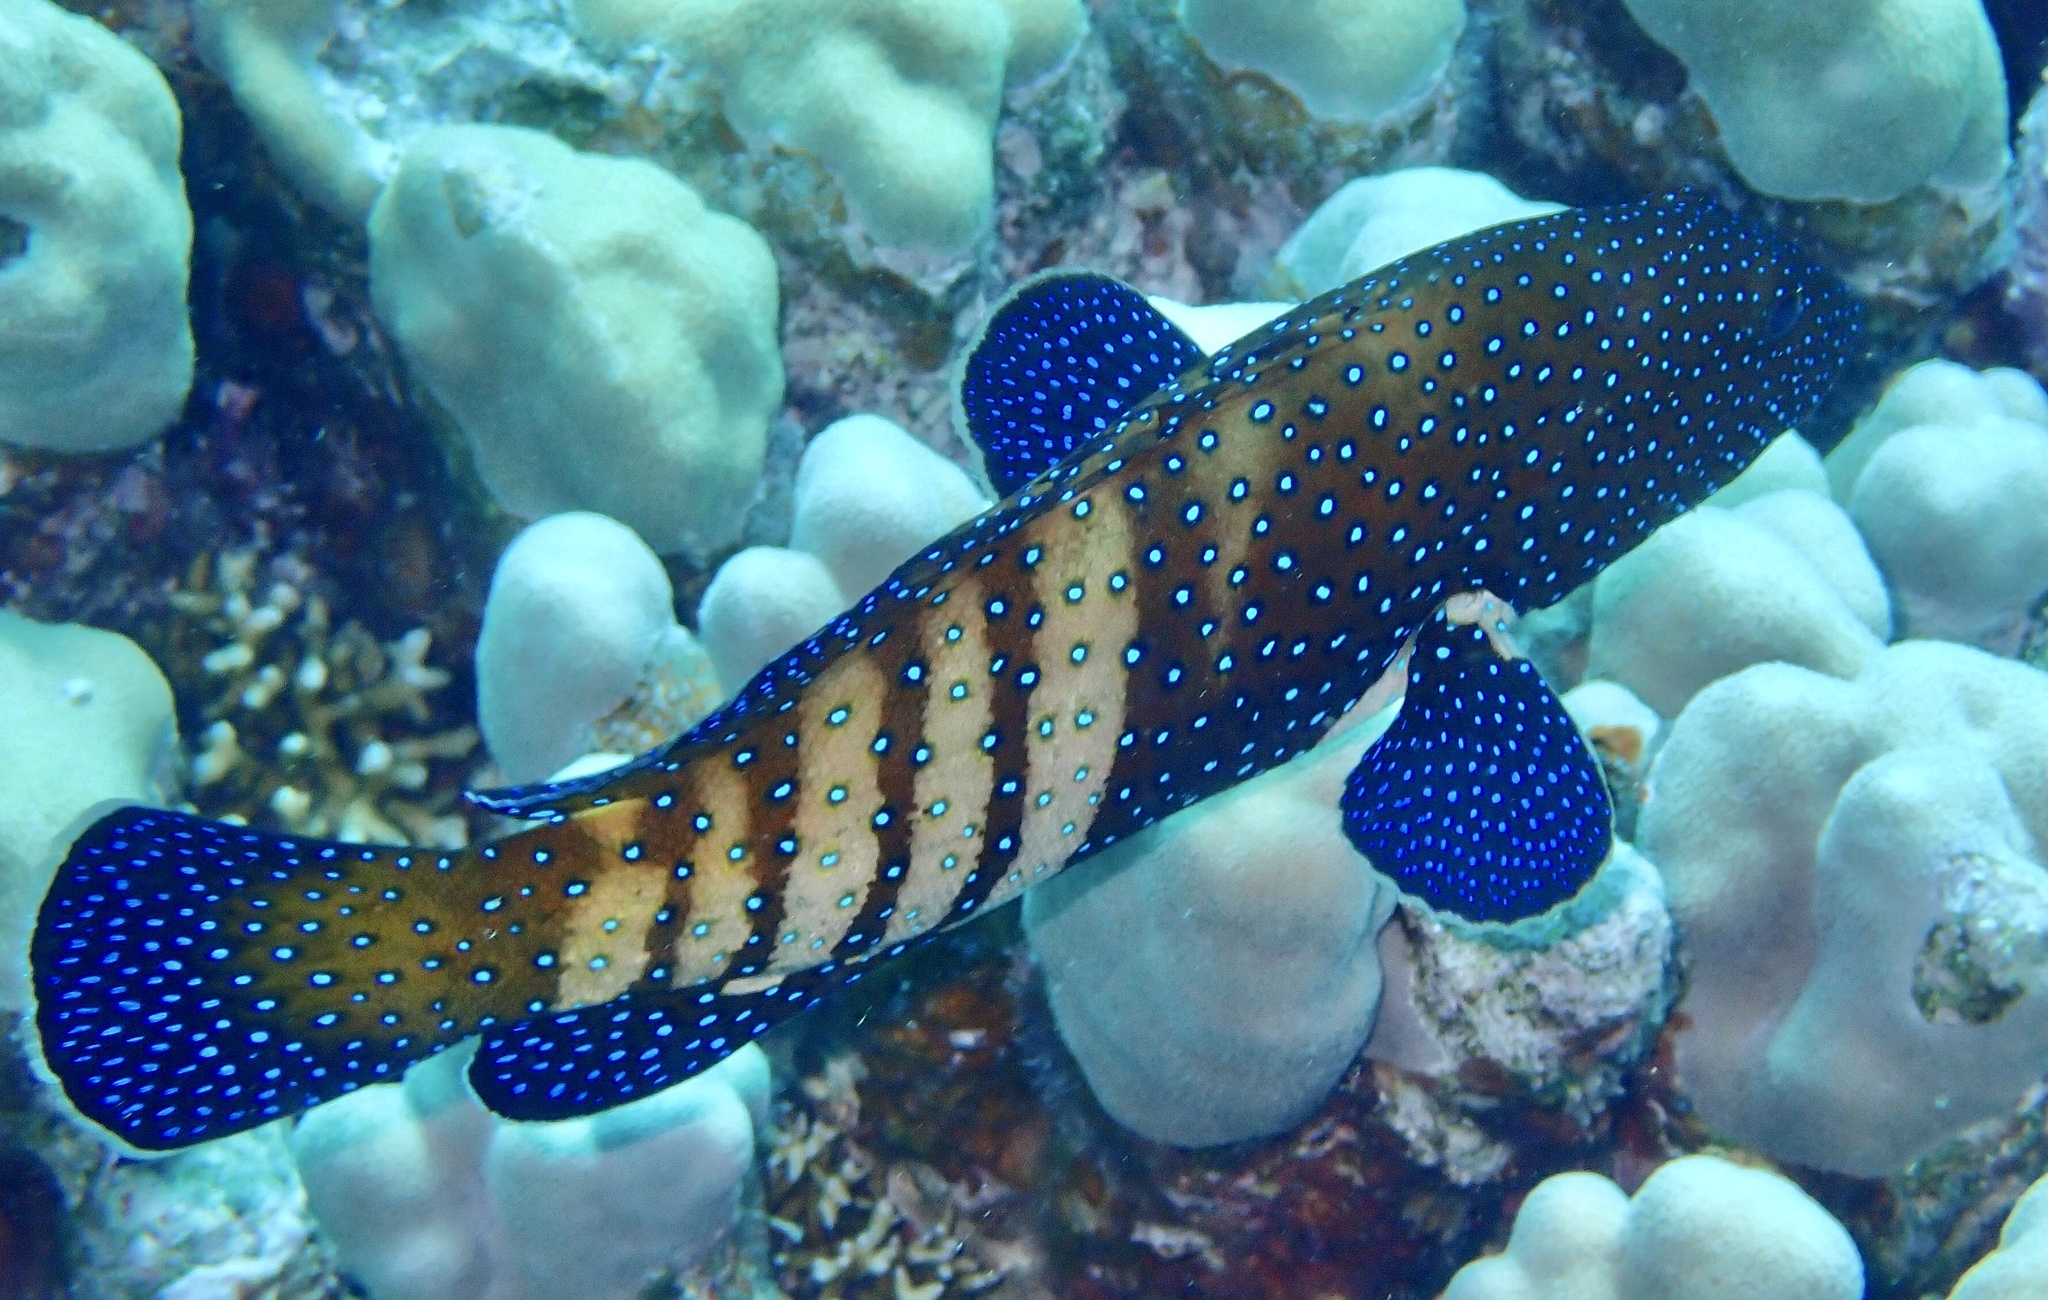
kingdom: Animalia
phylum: Chordata
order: Perciformes
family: Serranidae
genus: Cephalopholis
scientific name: Cephalopholis argus
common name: Peacock grouper
